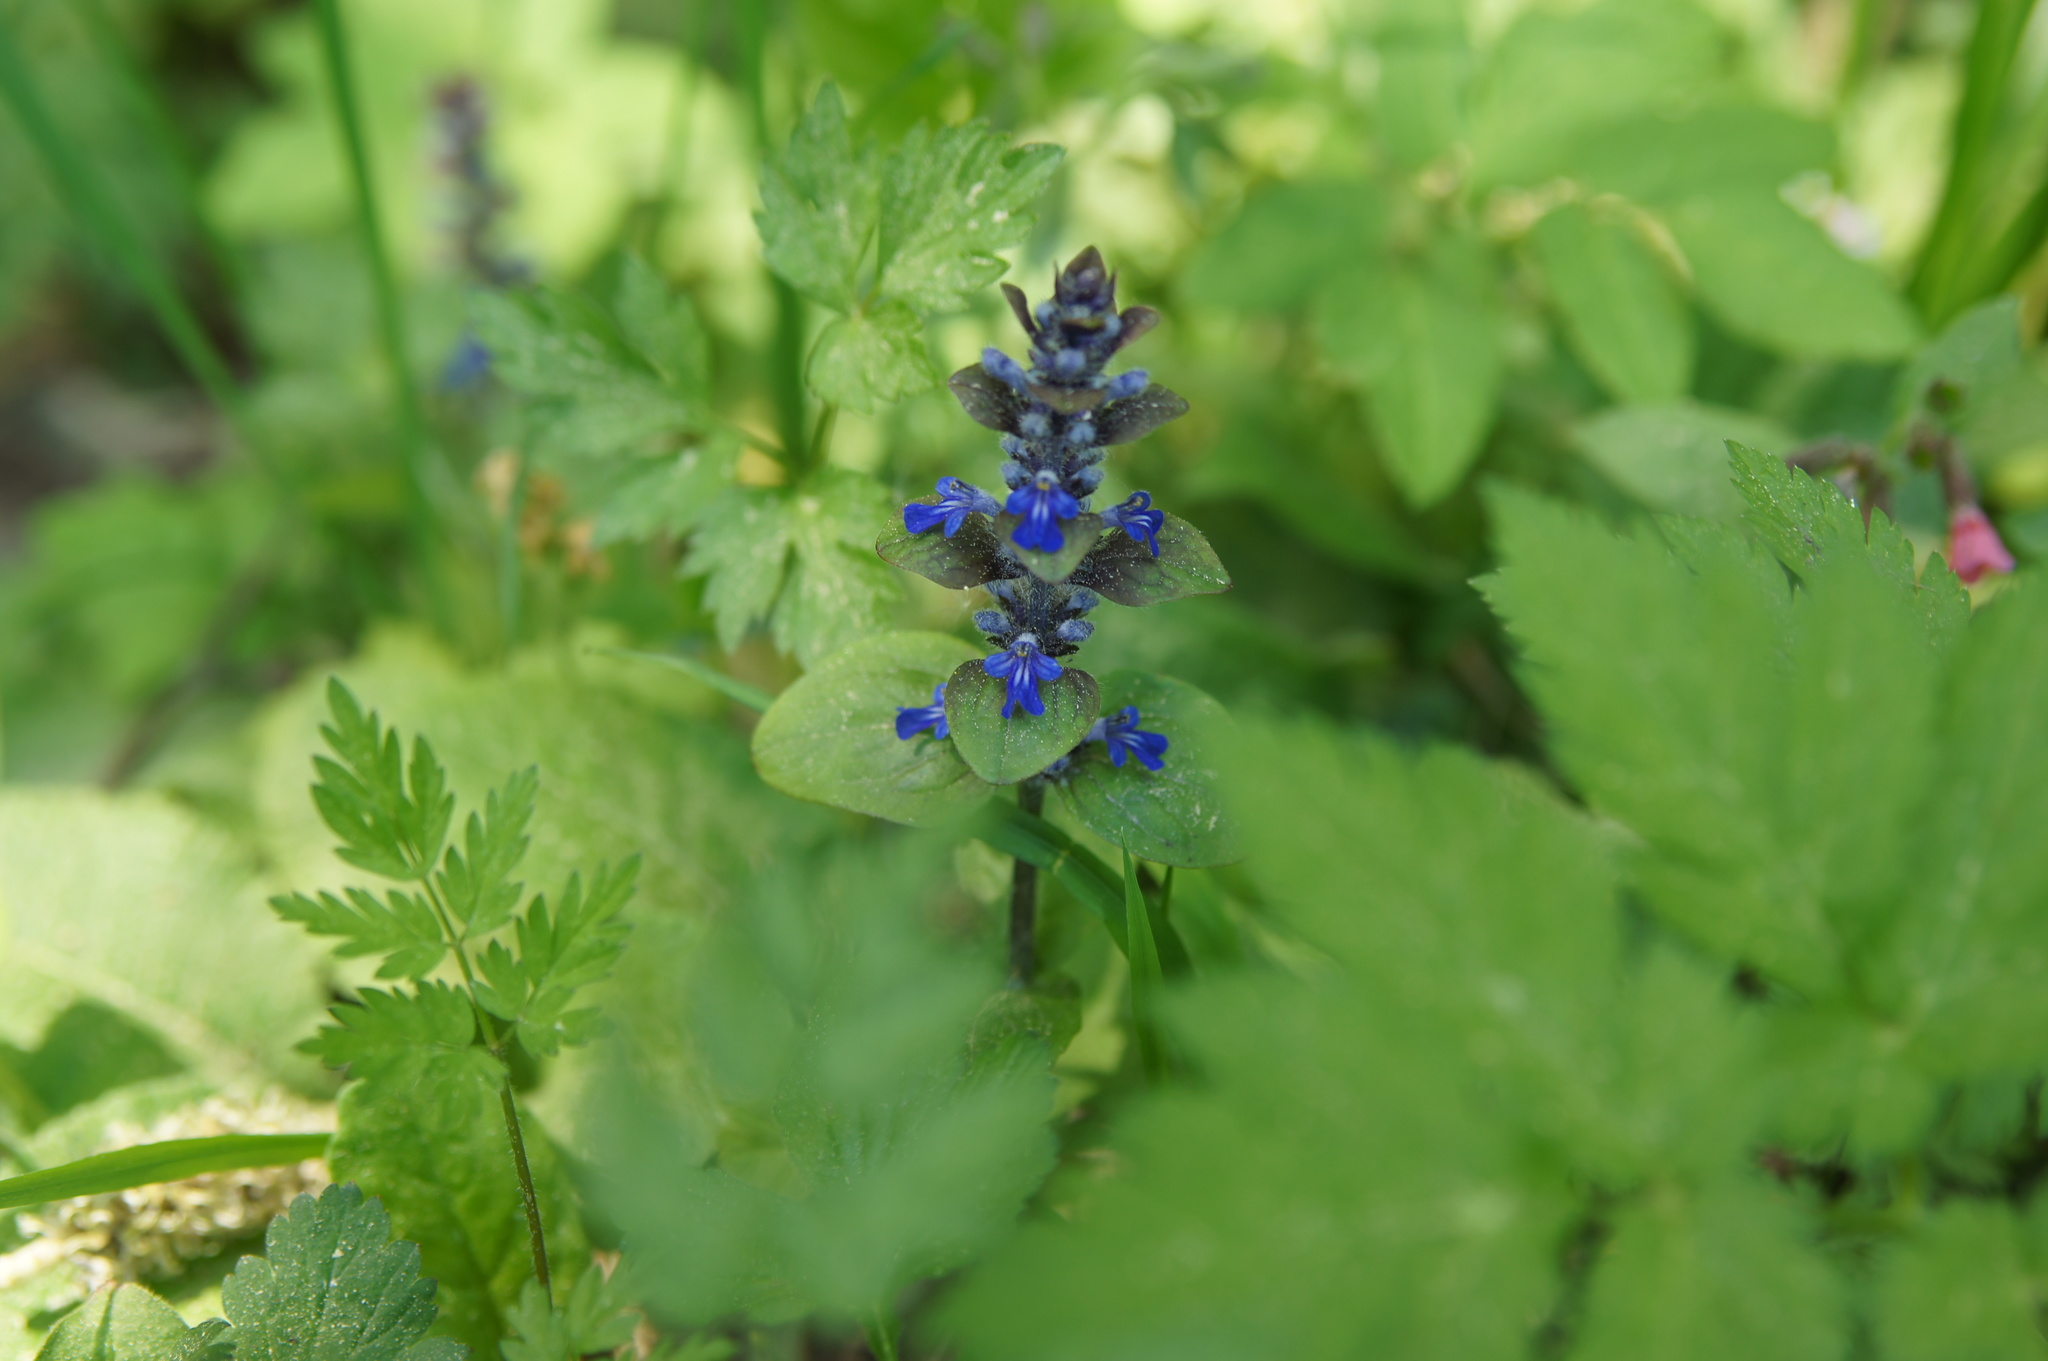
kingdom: Plantae
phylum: Tracheophyta
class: Magnoliopsida
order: Lamiales
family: Lamiaceae
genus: Ajuga
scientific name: Ajuga reptans
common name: Bugle
